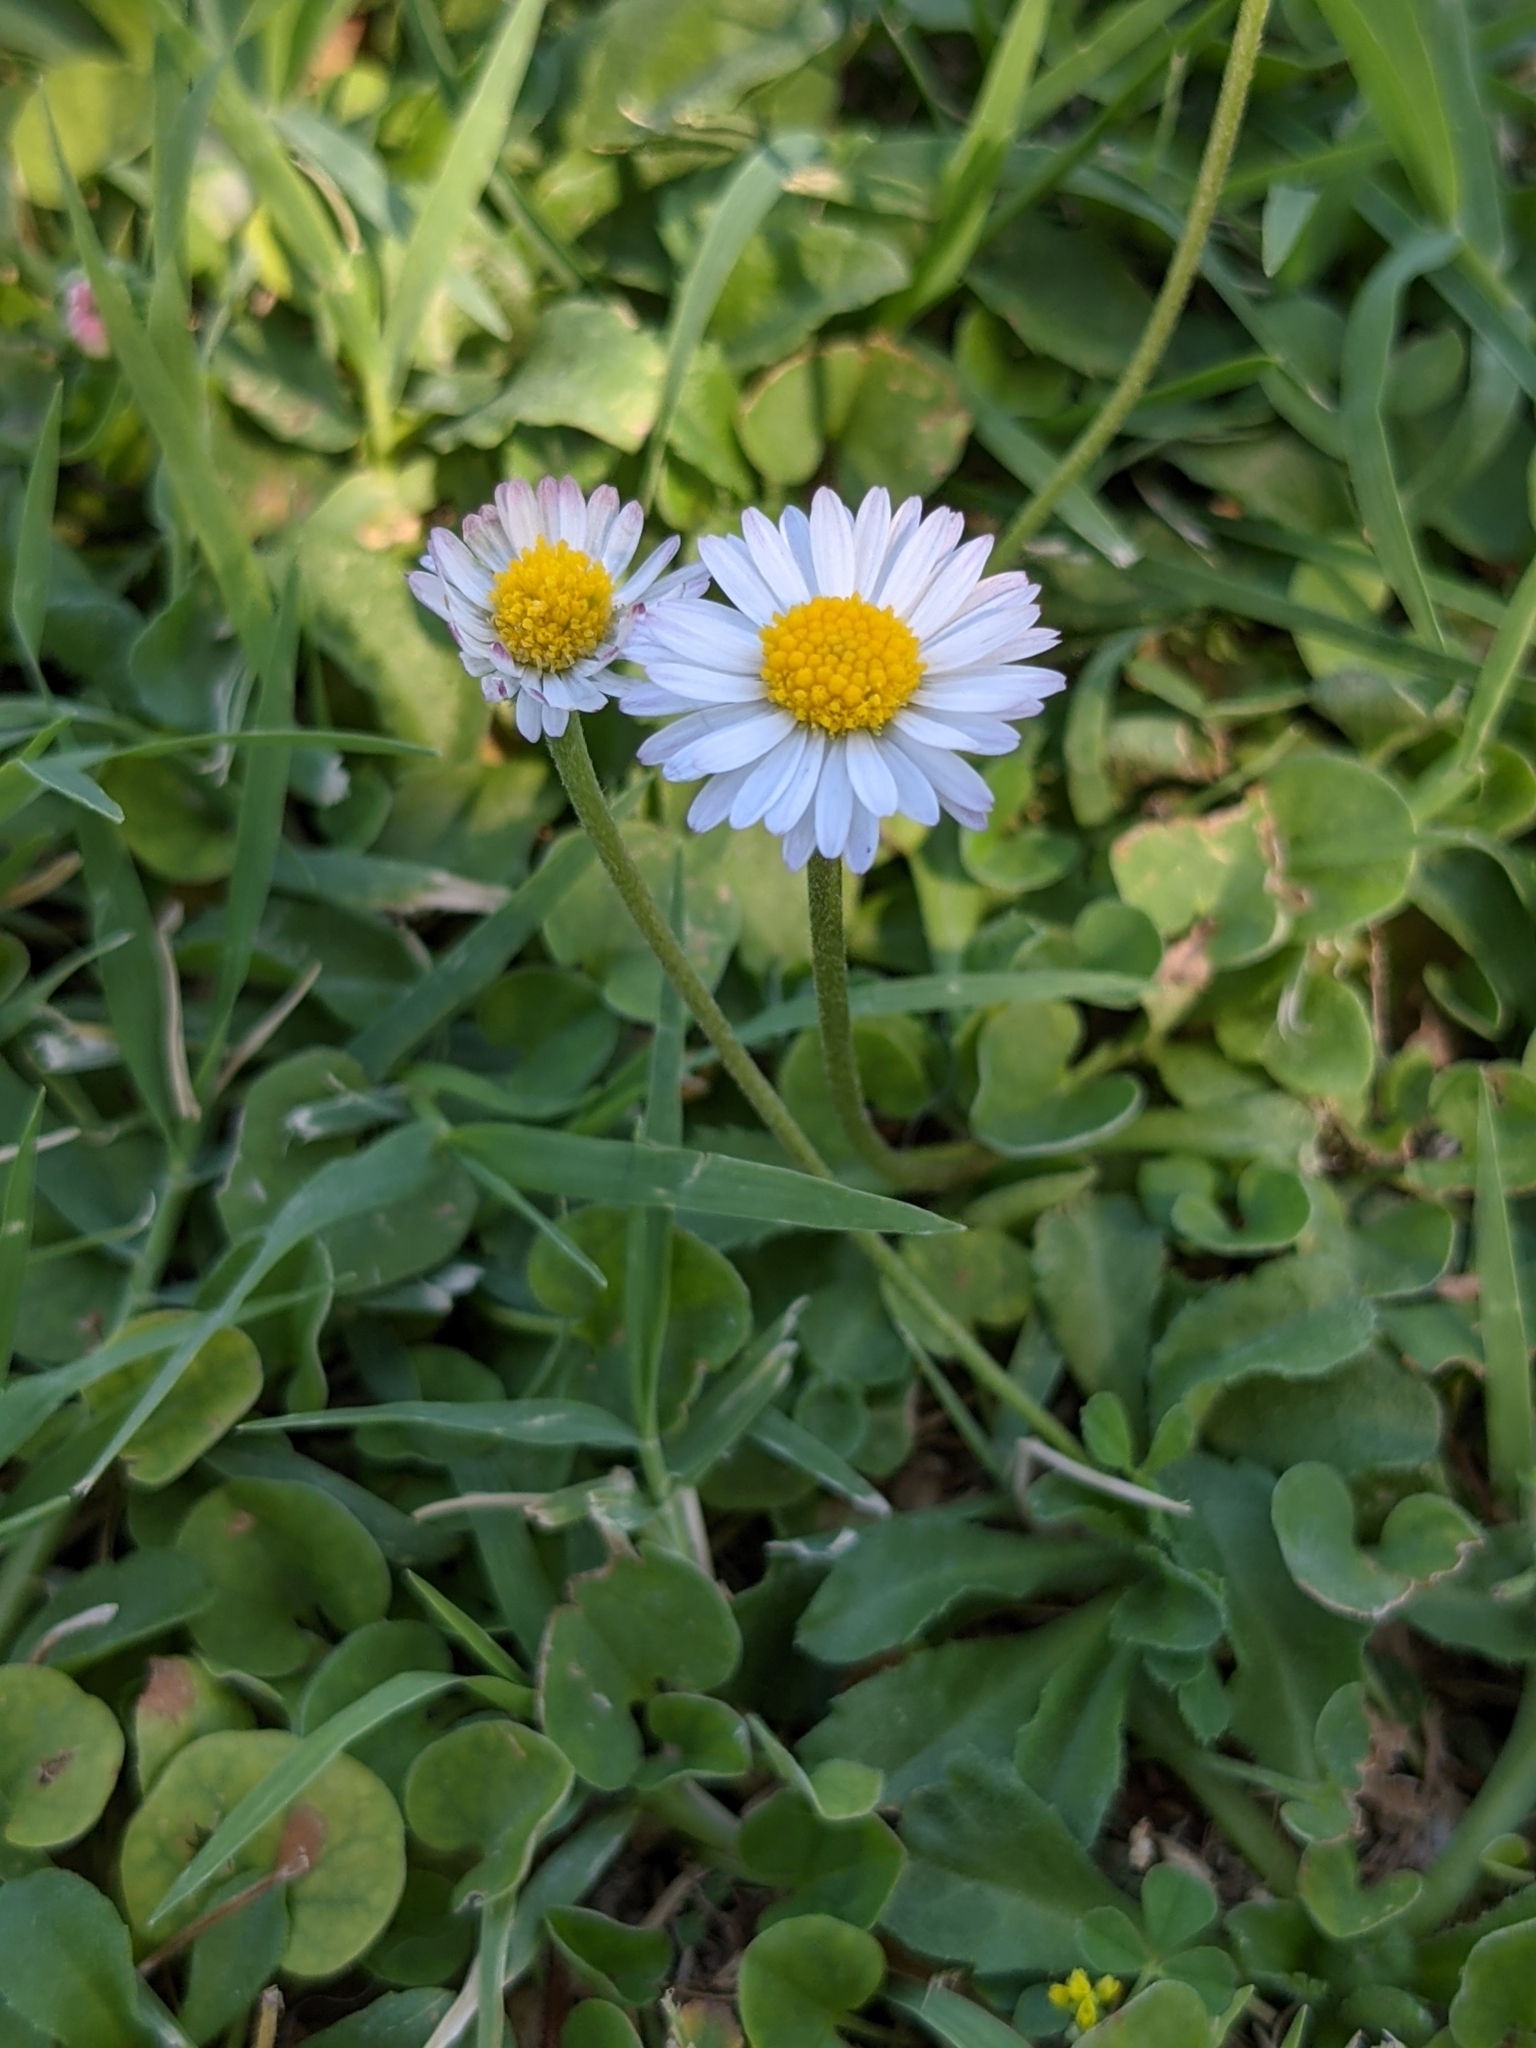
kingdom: Plantae
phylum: Tracheophyta
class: Magnoliopsida
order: Asterales
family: Asteraceae
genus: Bellis
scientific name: Bellis perennis
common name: Lawndaisy
